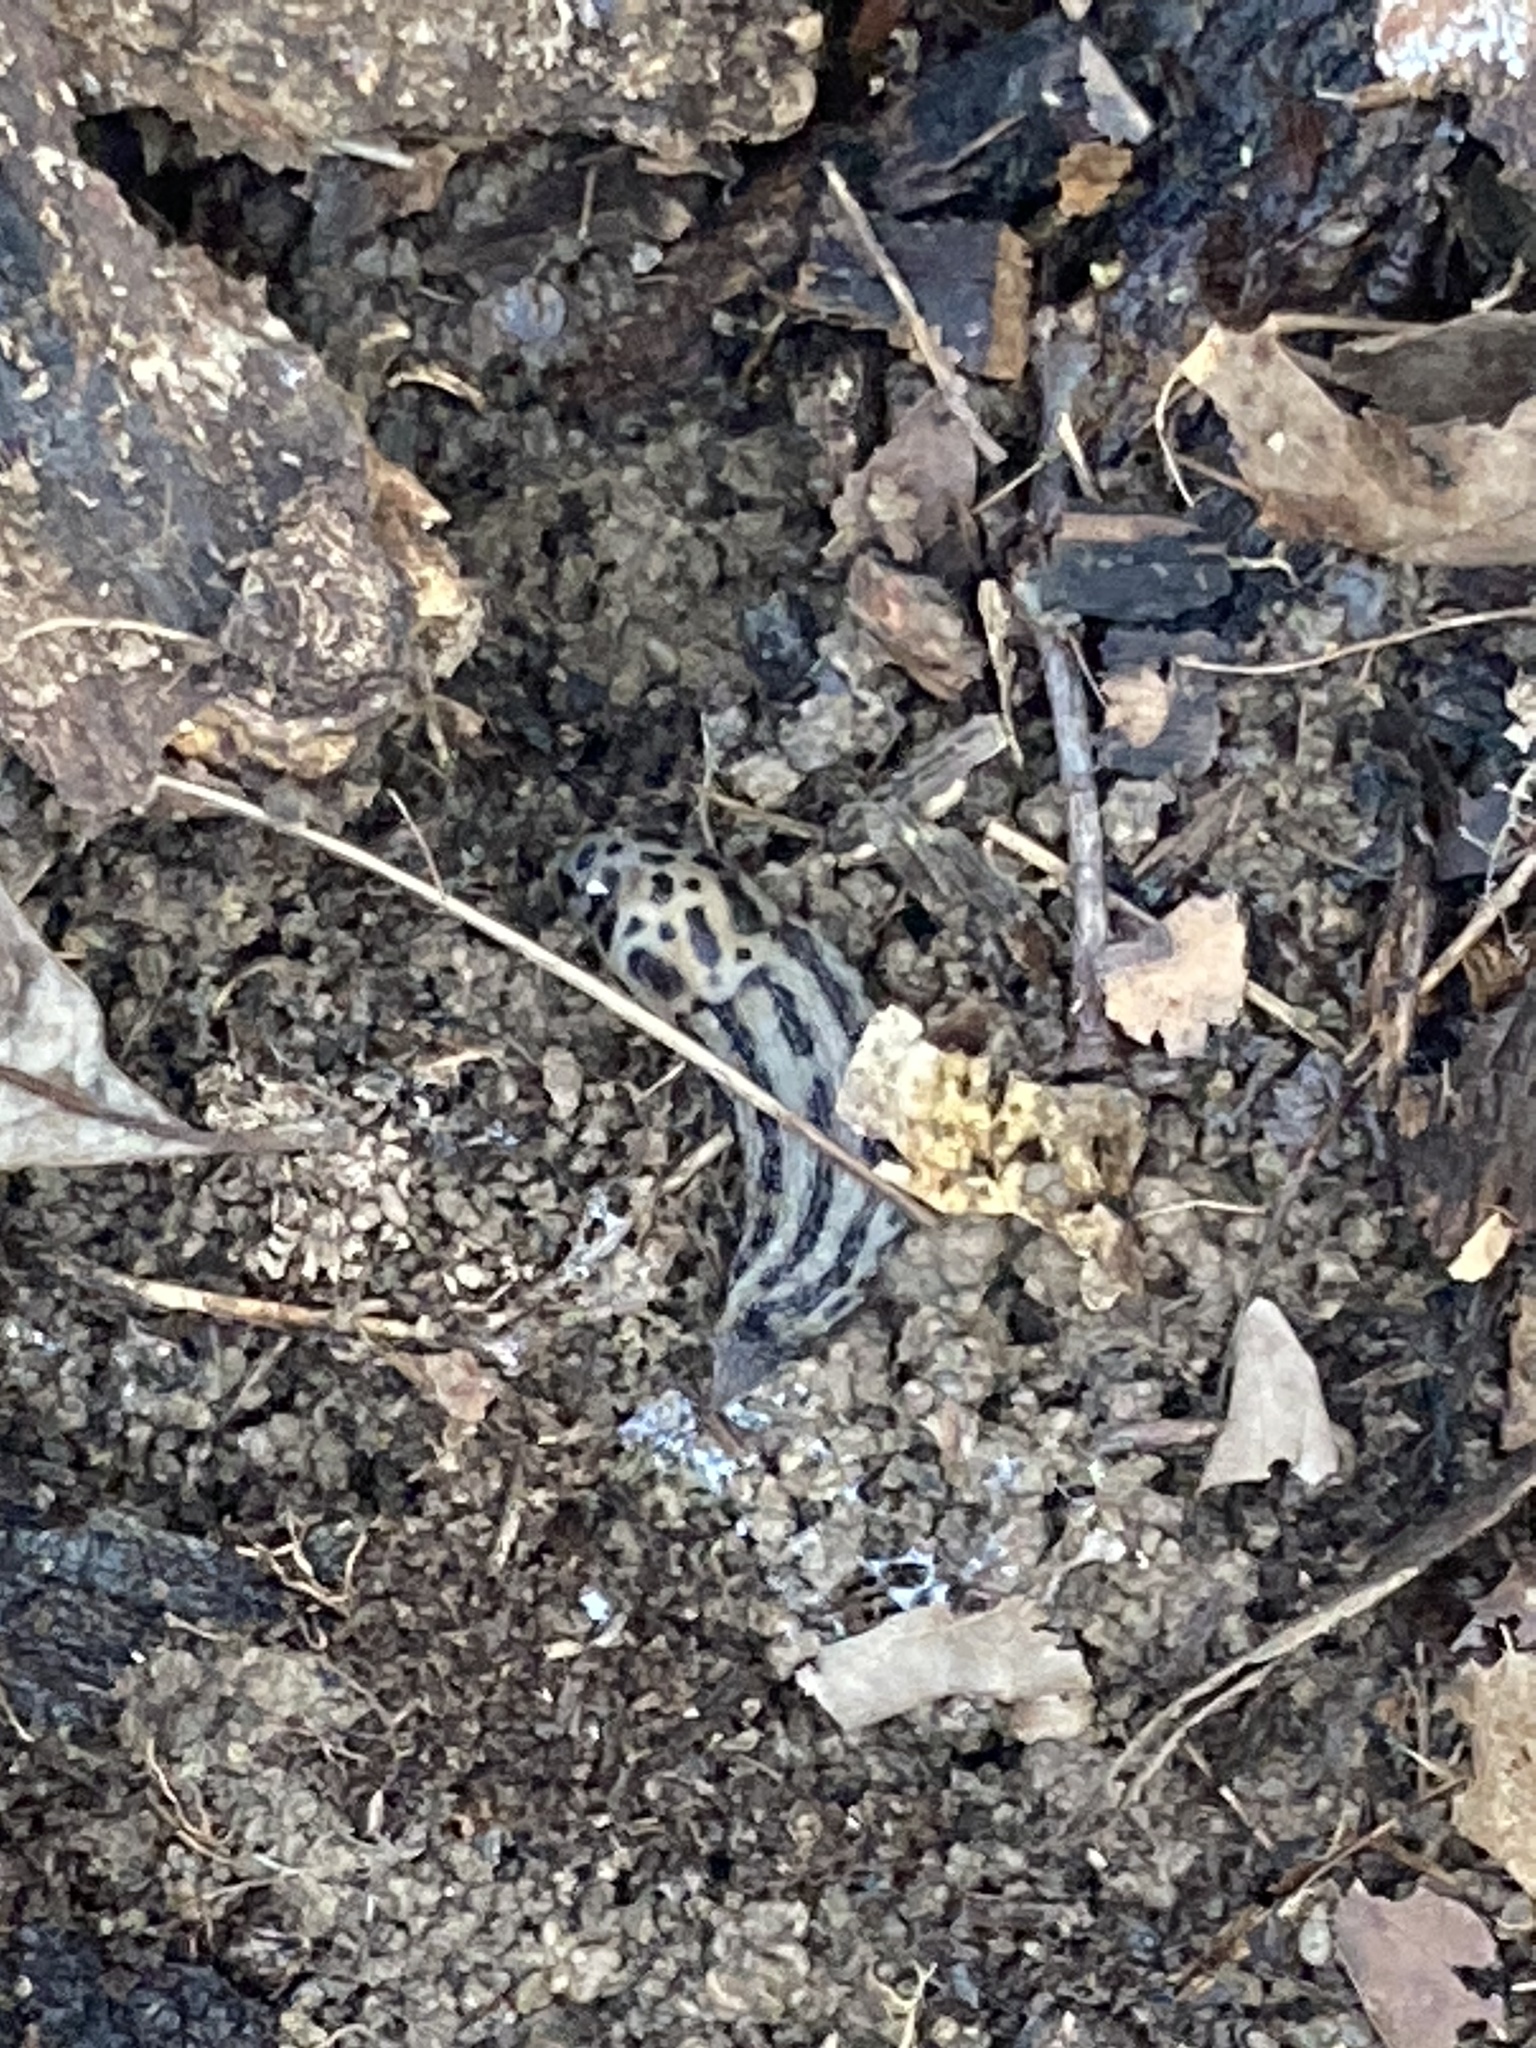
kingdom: Animalia
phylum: Mollusca
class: Gastropoda
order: Stylommatophora
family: Limacidae
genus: Limax
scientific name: Limax maximus
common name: Great grey slug
